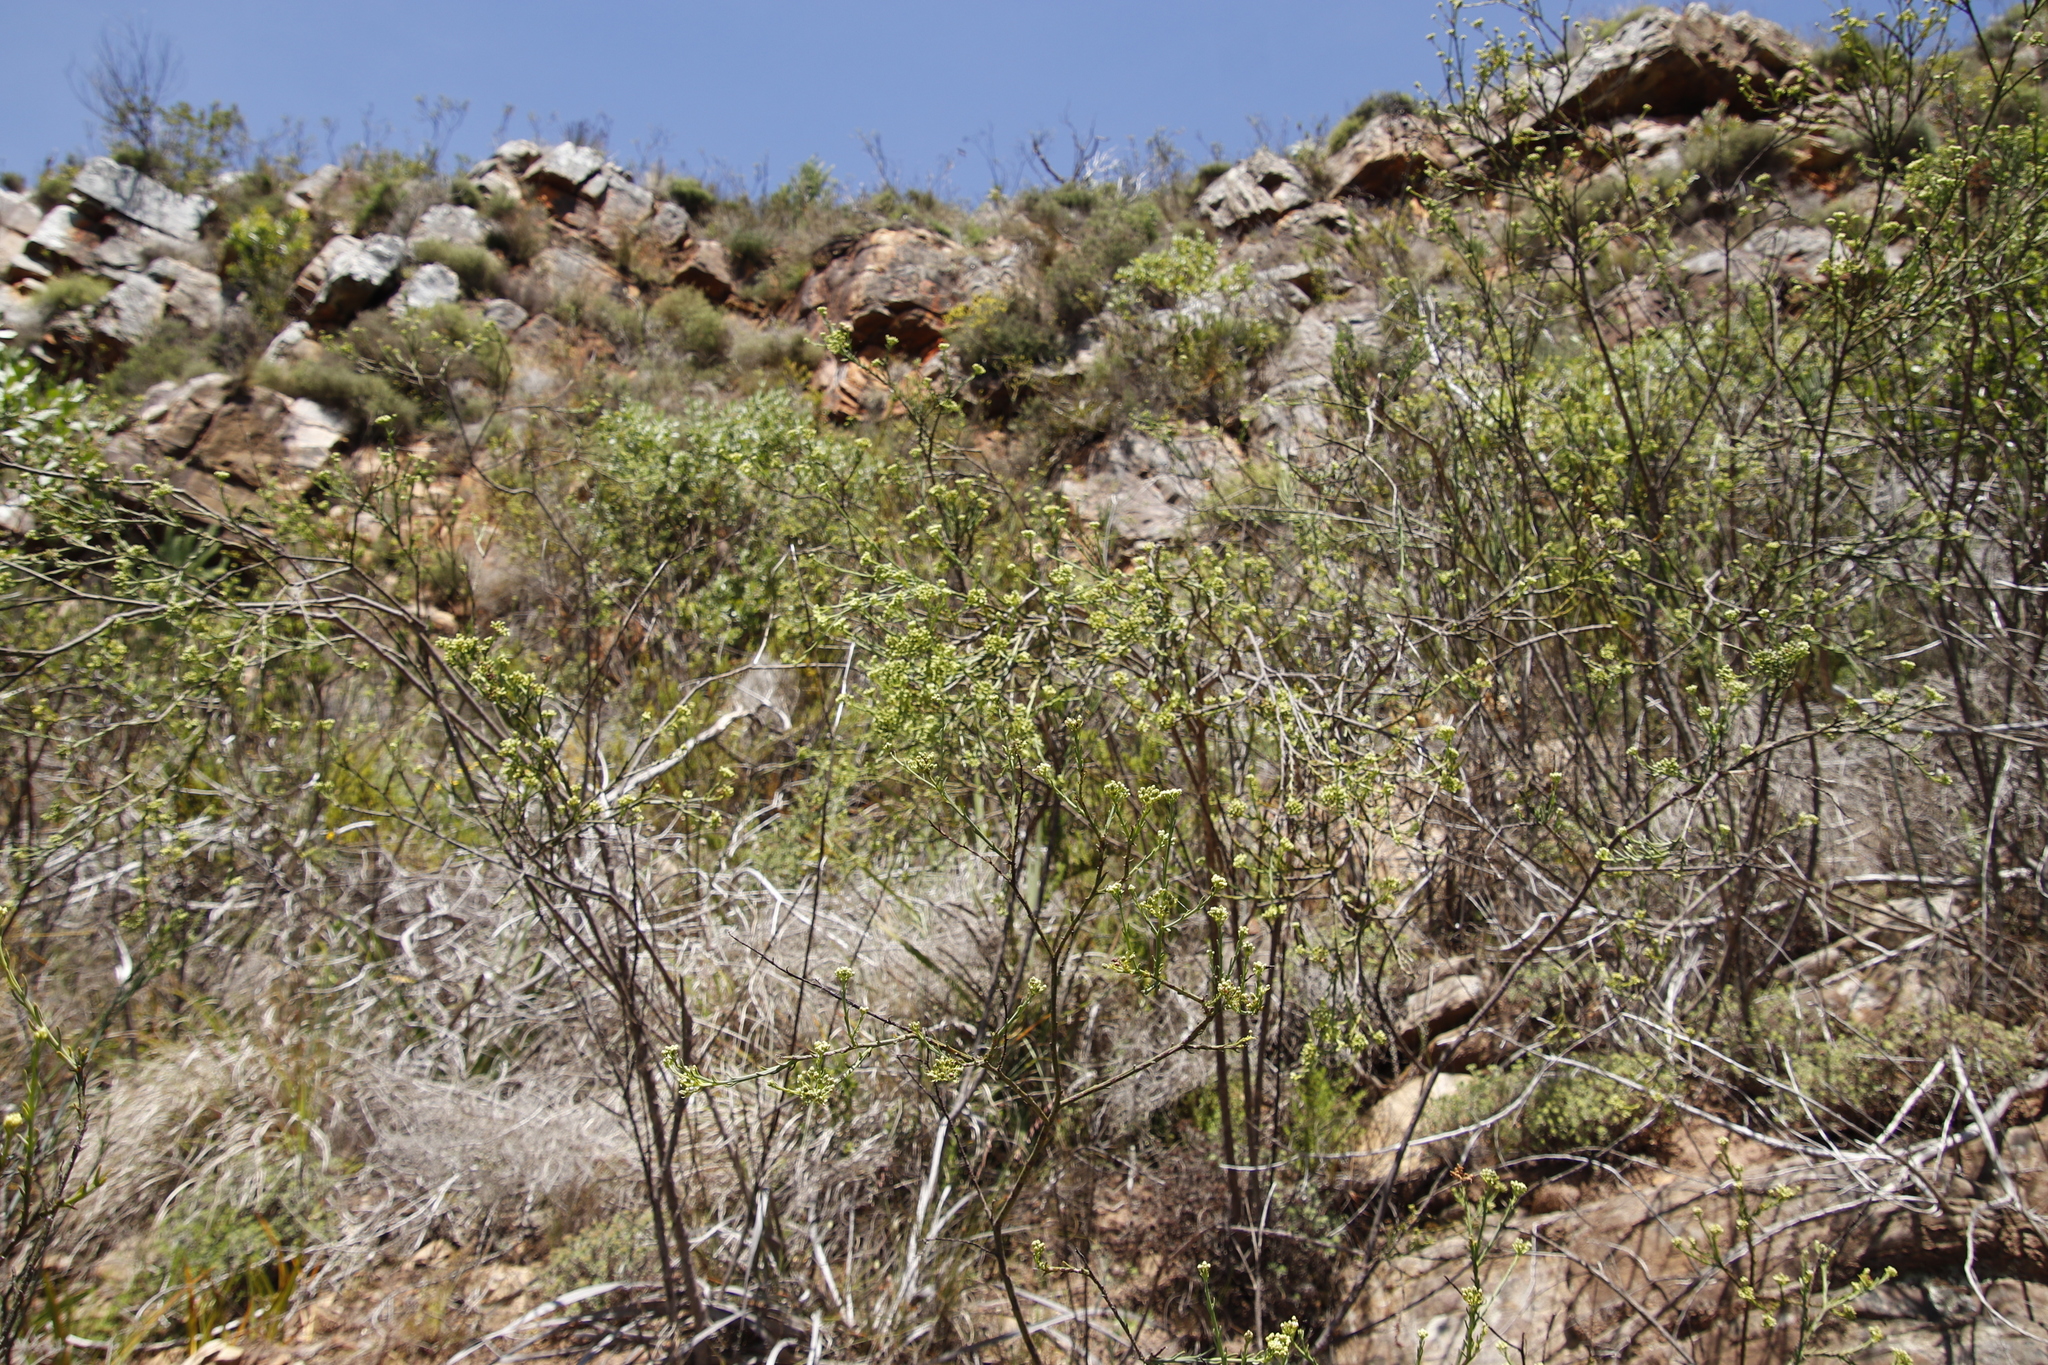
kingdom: Plantae
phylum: Tracheophyta
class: Magnoliopsida
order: Santalales
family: Thesiaceae
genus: Thesium
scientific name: Thesium strictum
